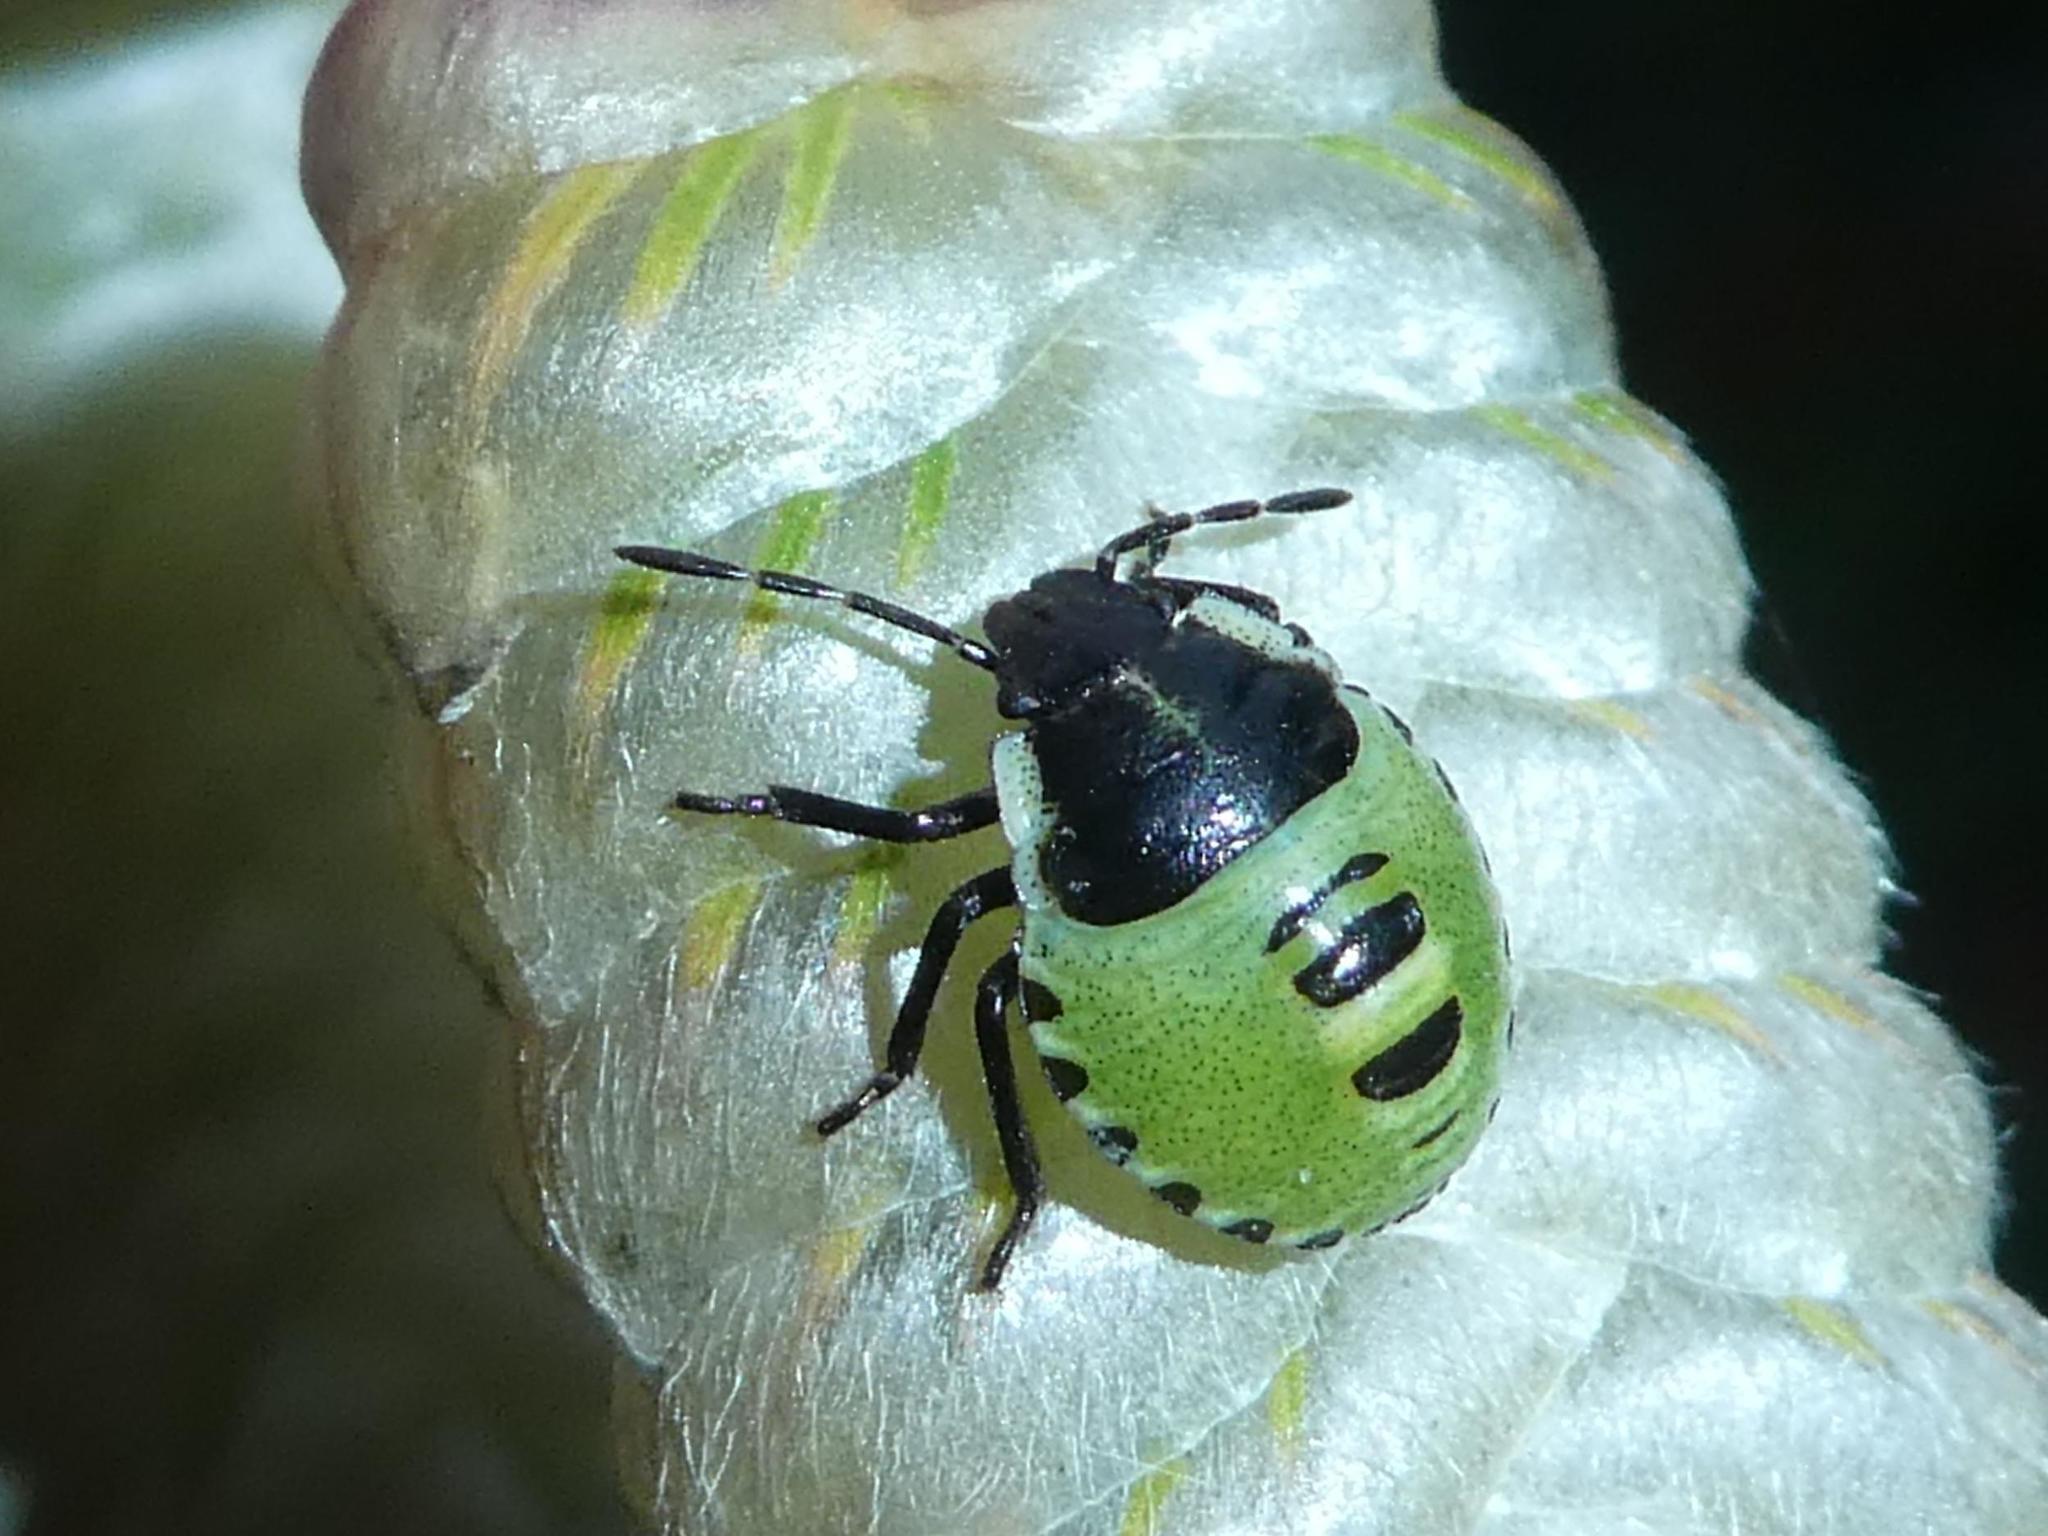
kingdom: Animalia
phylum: Arthropoda
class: Insecta
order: Hemiptera
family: Pentatomidae
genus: Palomena
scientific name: Palomena prasina
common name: Green shieldbug
